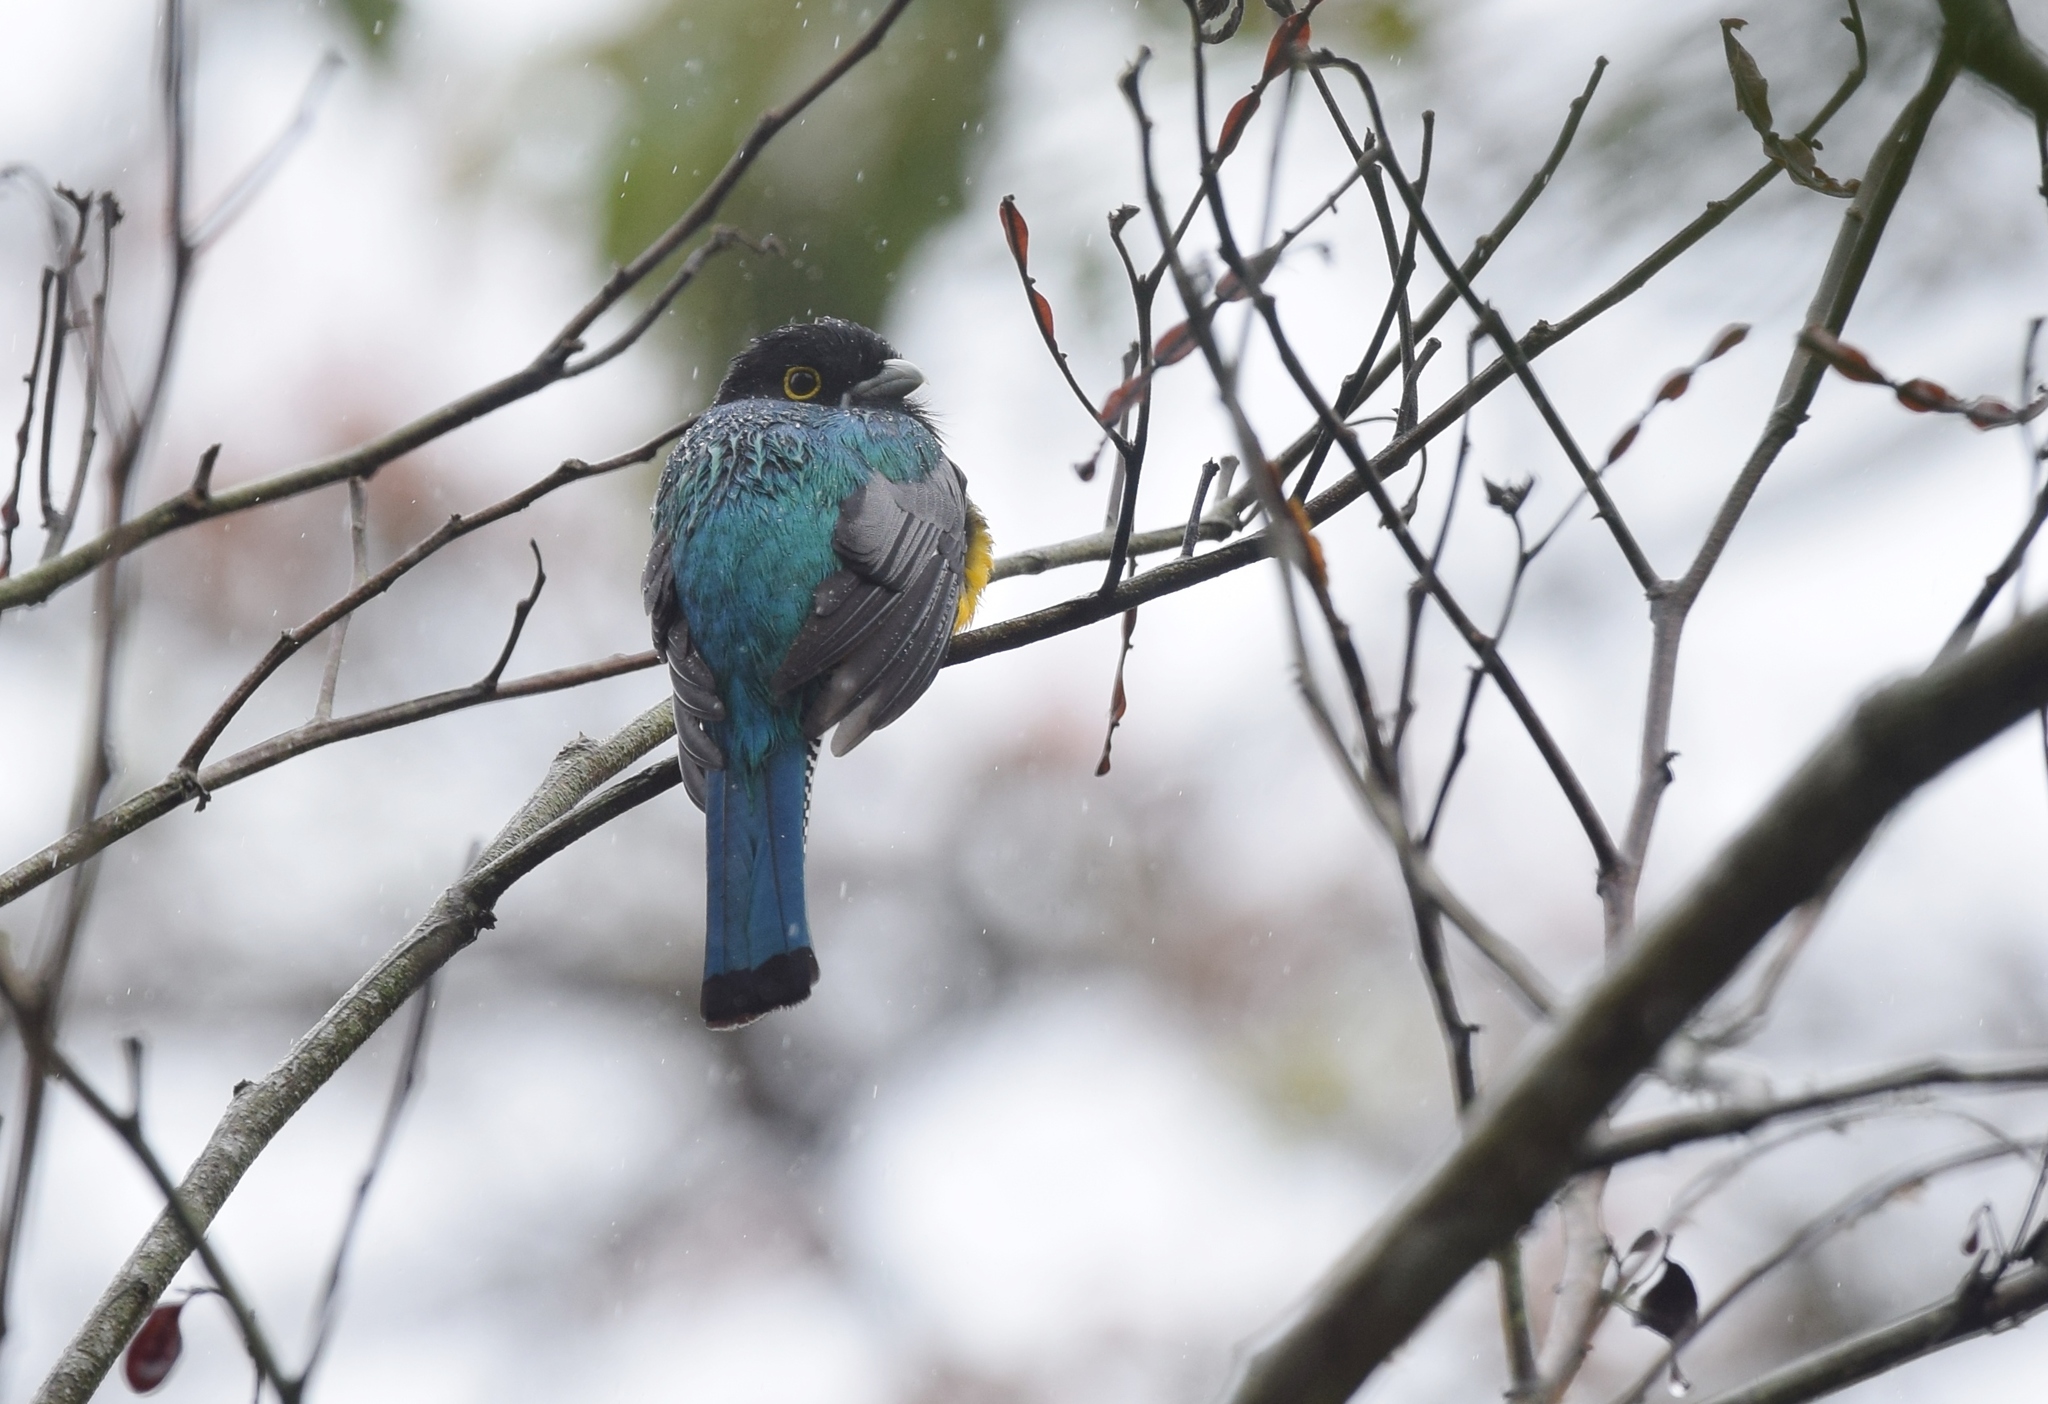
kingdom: Animalia
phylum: Chordata
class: Aves
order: Trogoniformes
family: Trogonidae
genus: Trogon
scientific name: Trogon caligatus
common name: Gartered trogon
